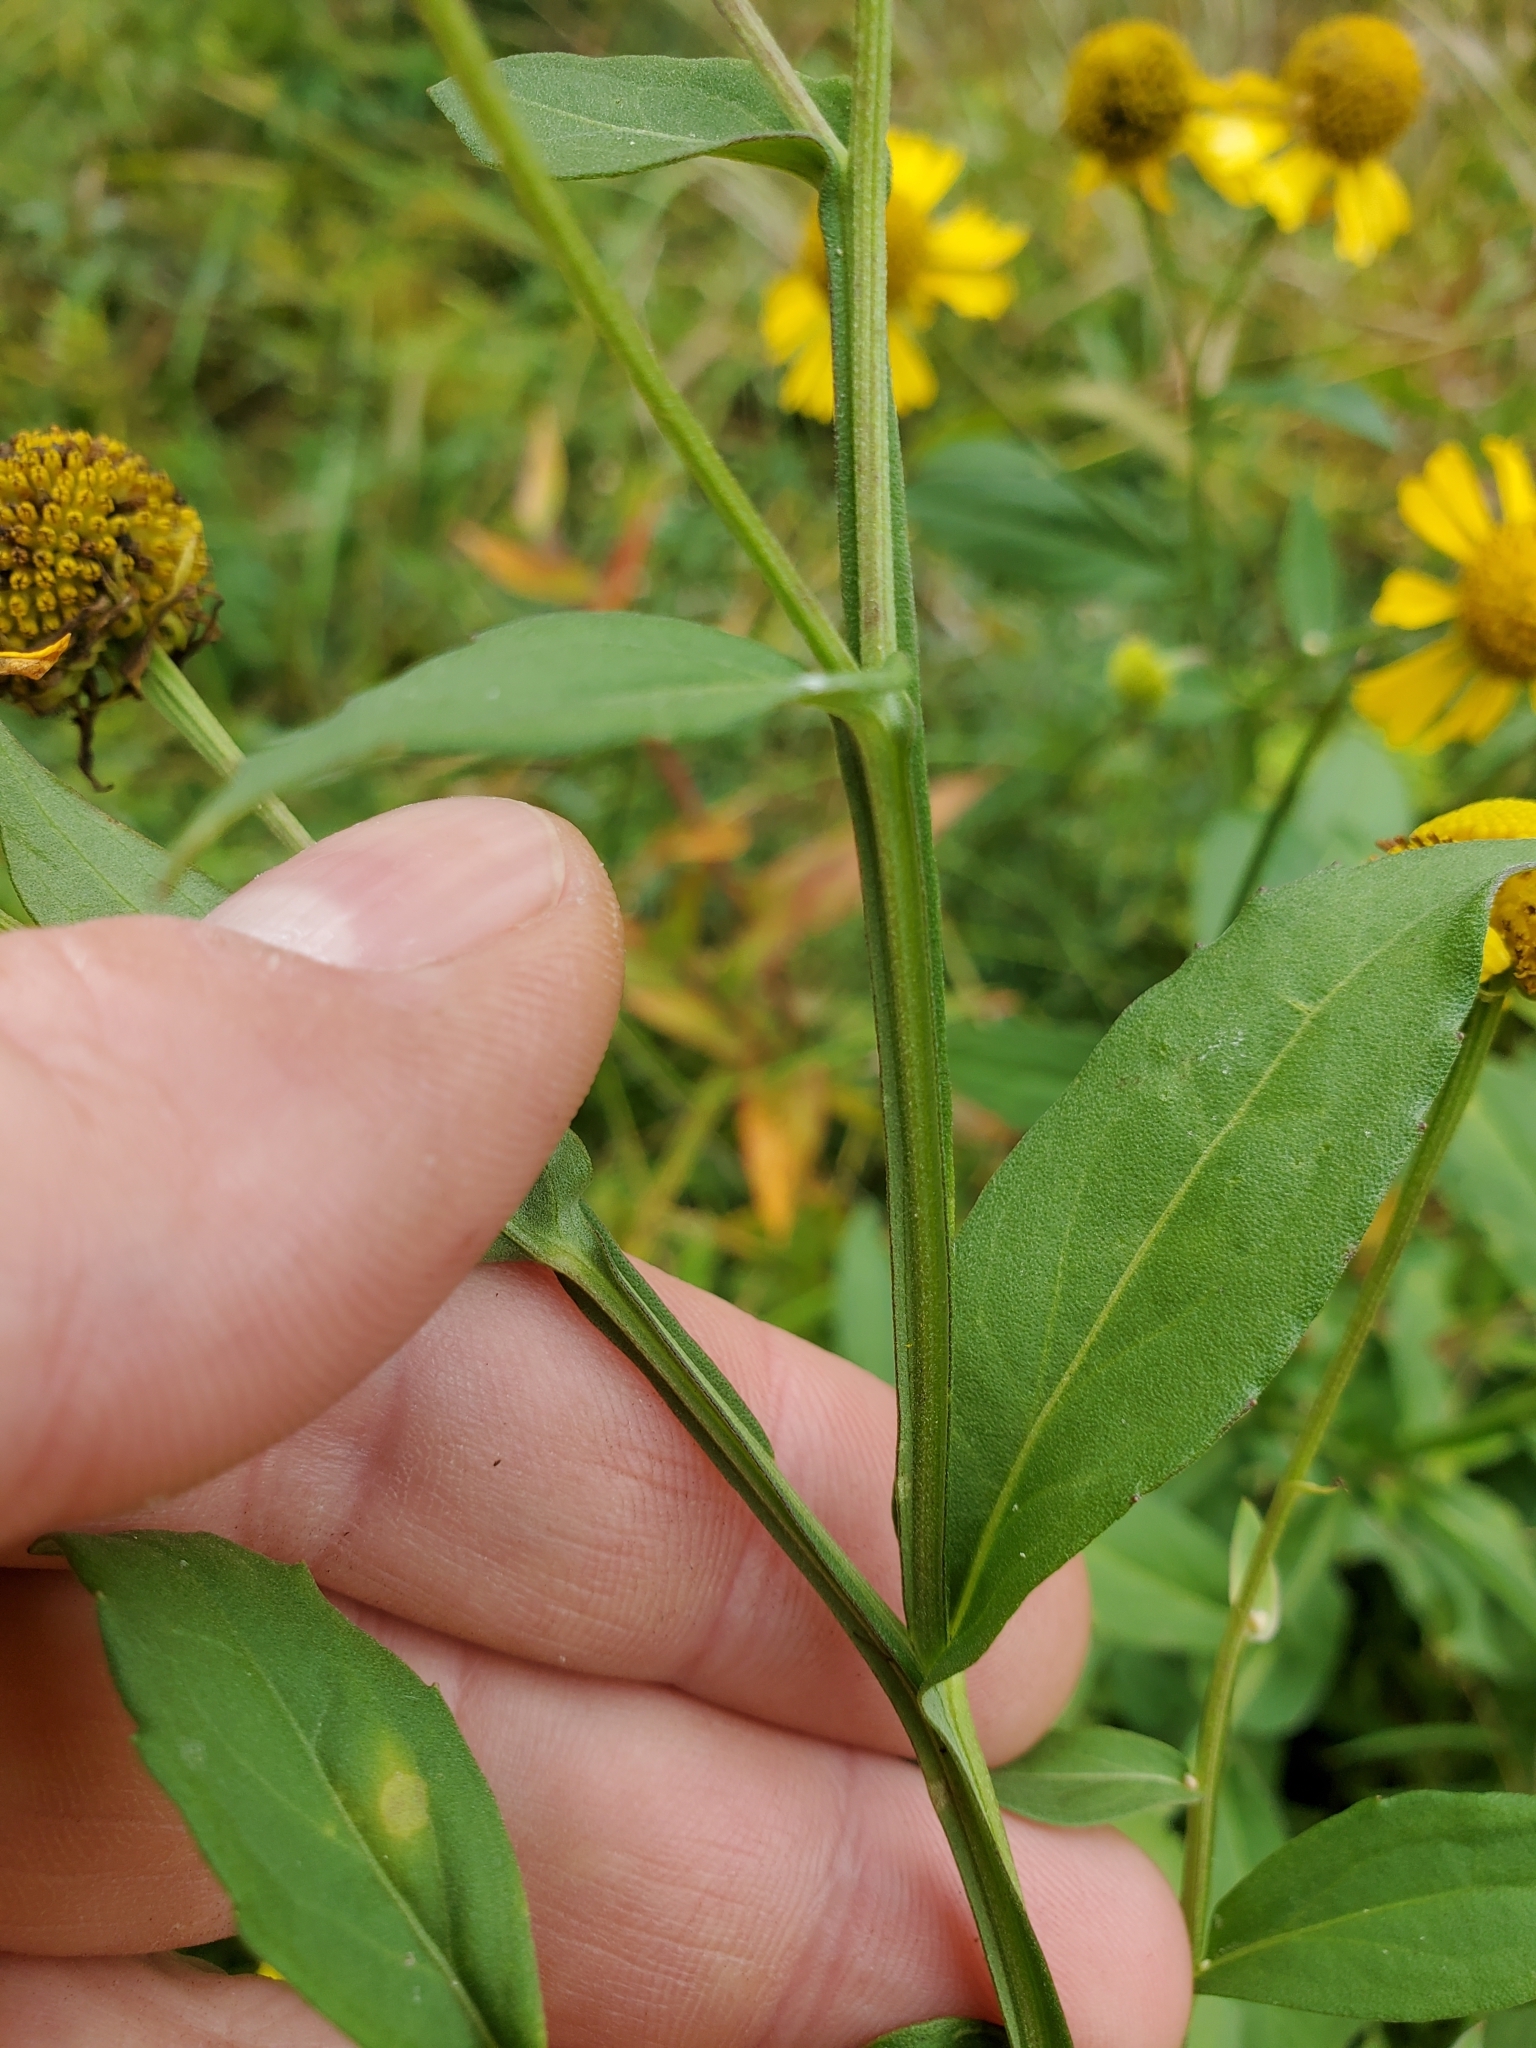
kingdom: Plantae
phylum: Tracheophyta
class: Magnoliopsida
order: Asterales
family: Asteraceae
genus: Helenium
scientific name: Helenium autumnale
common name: Sneezeweed
